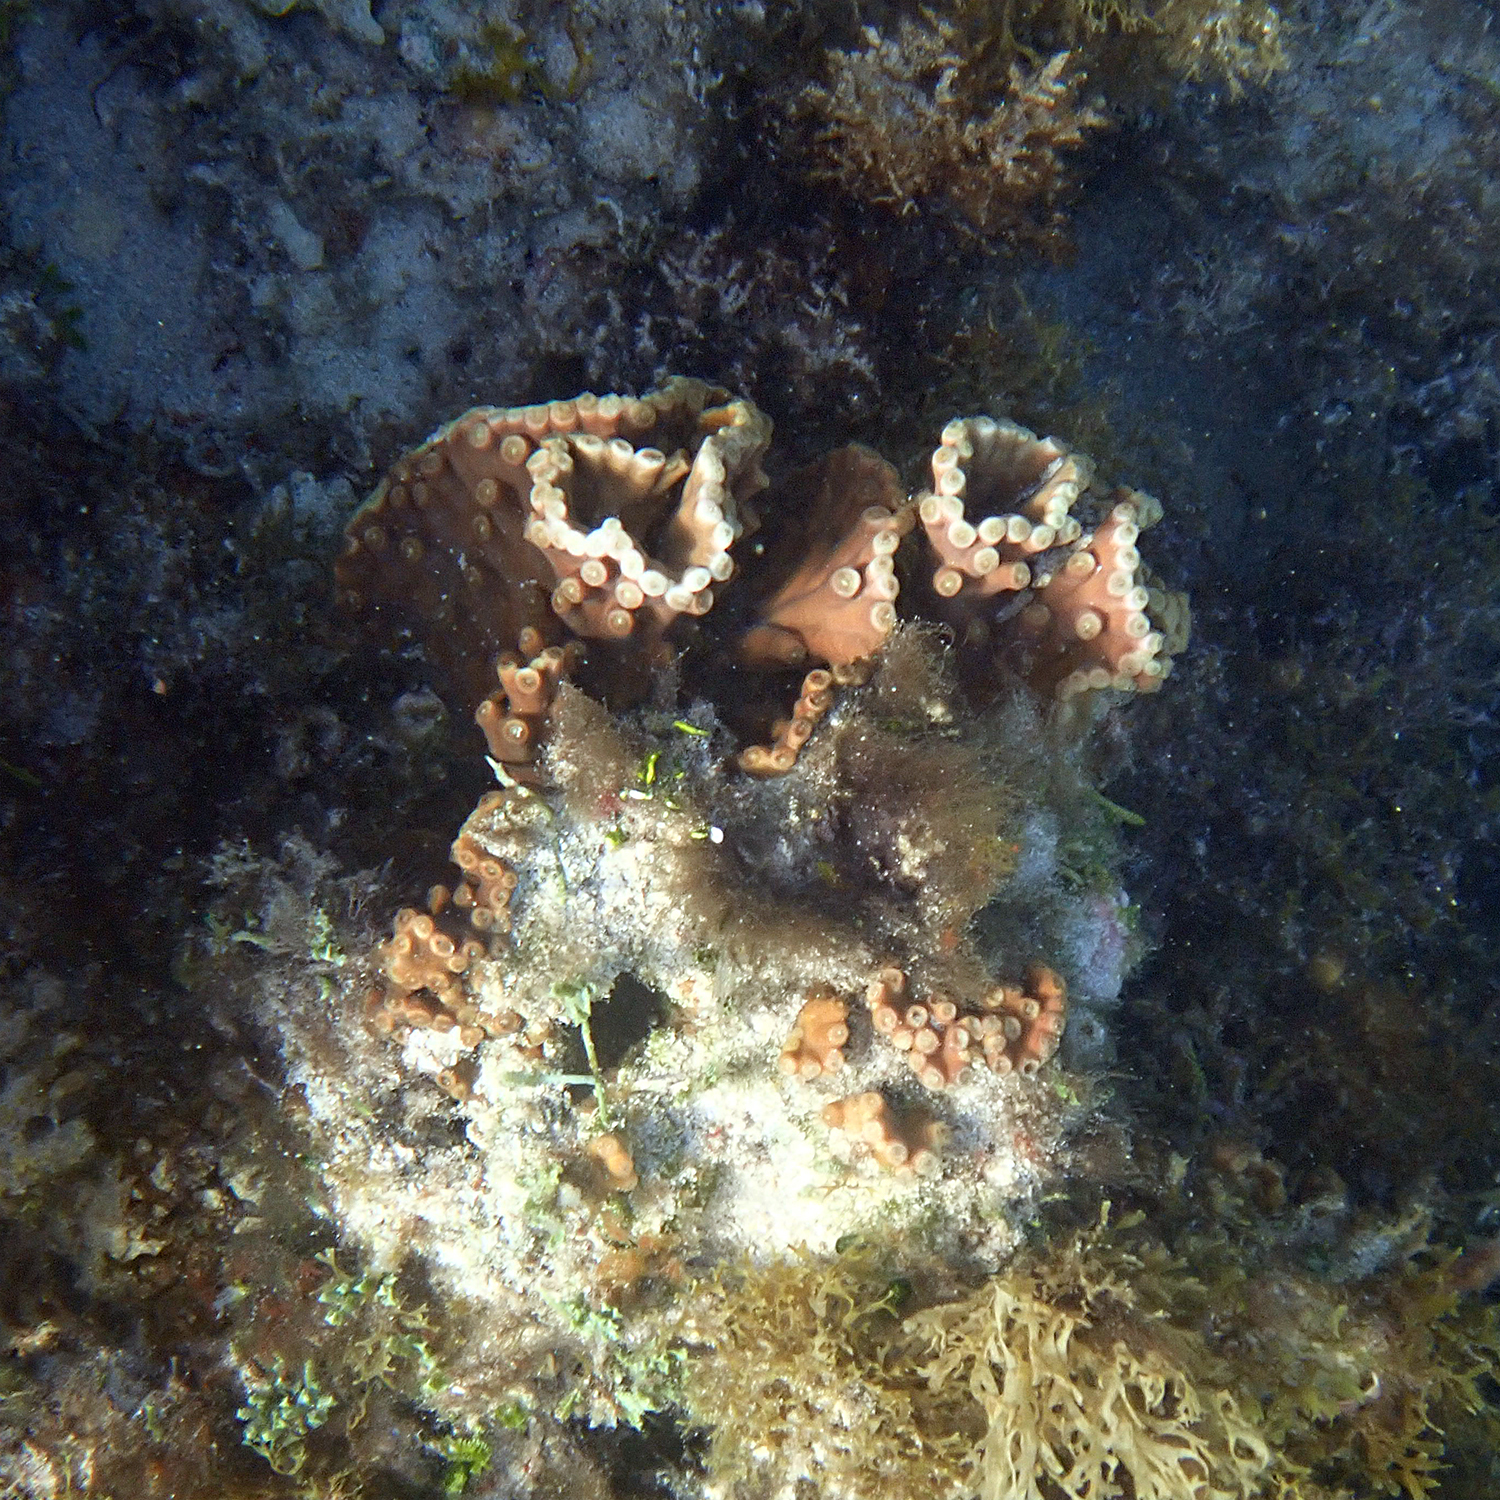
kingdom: Animalia
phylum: Cnidaria
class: Anthozoa
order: Scleractinia
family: Dendrophylliidae
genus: Turbinaria
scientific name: Turbinaria heronensis
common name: Disc coral
